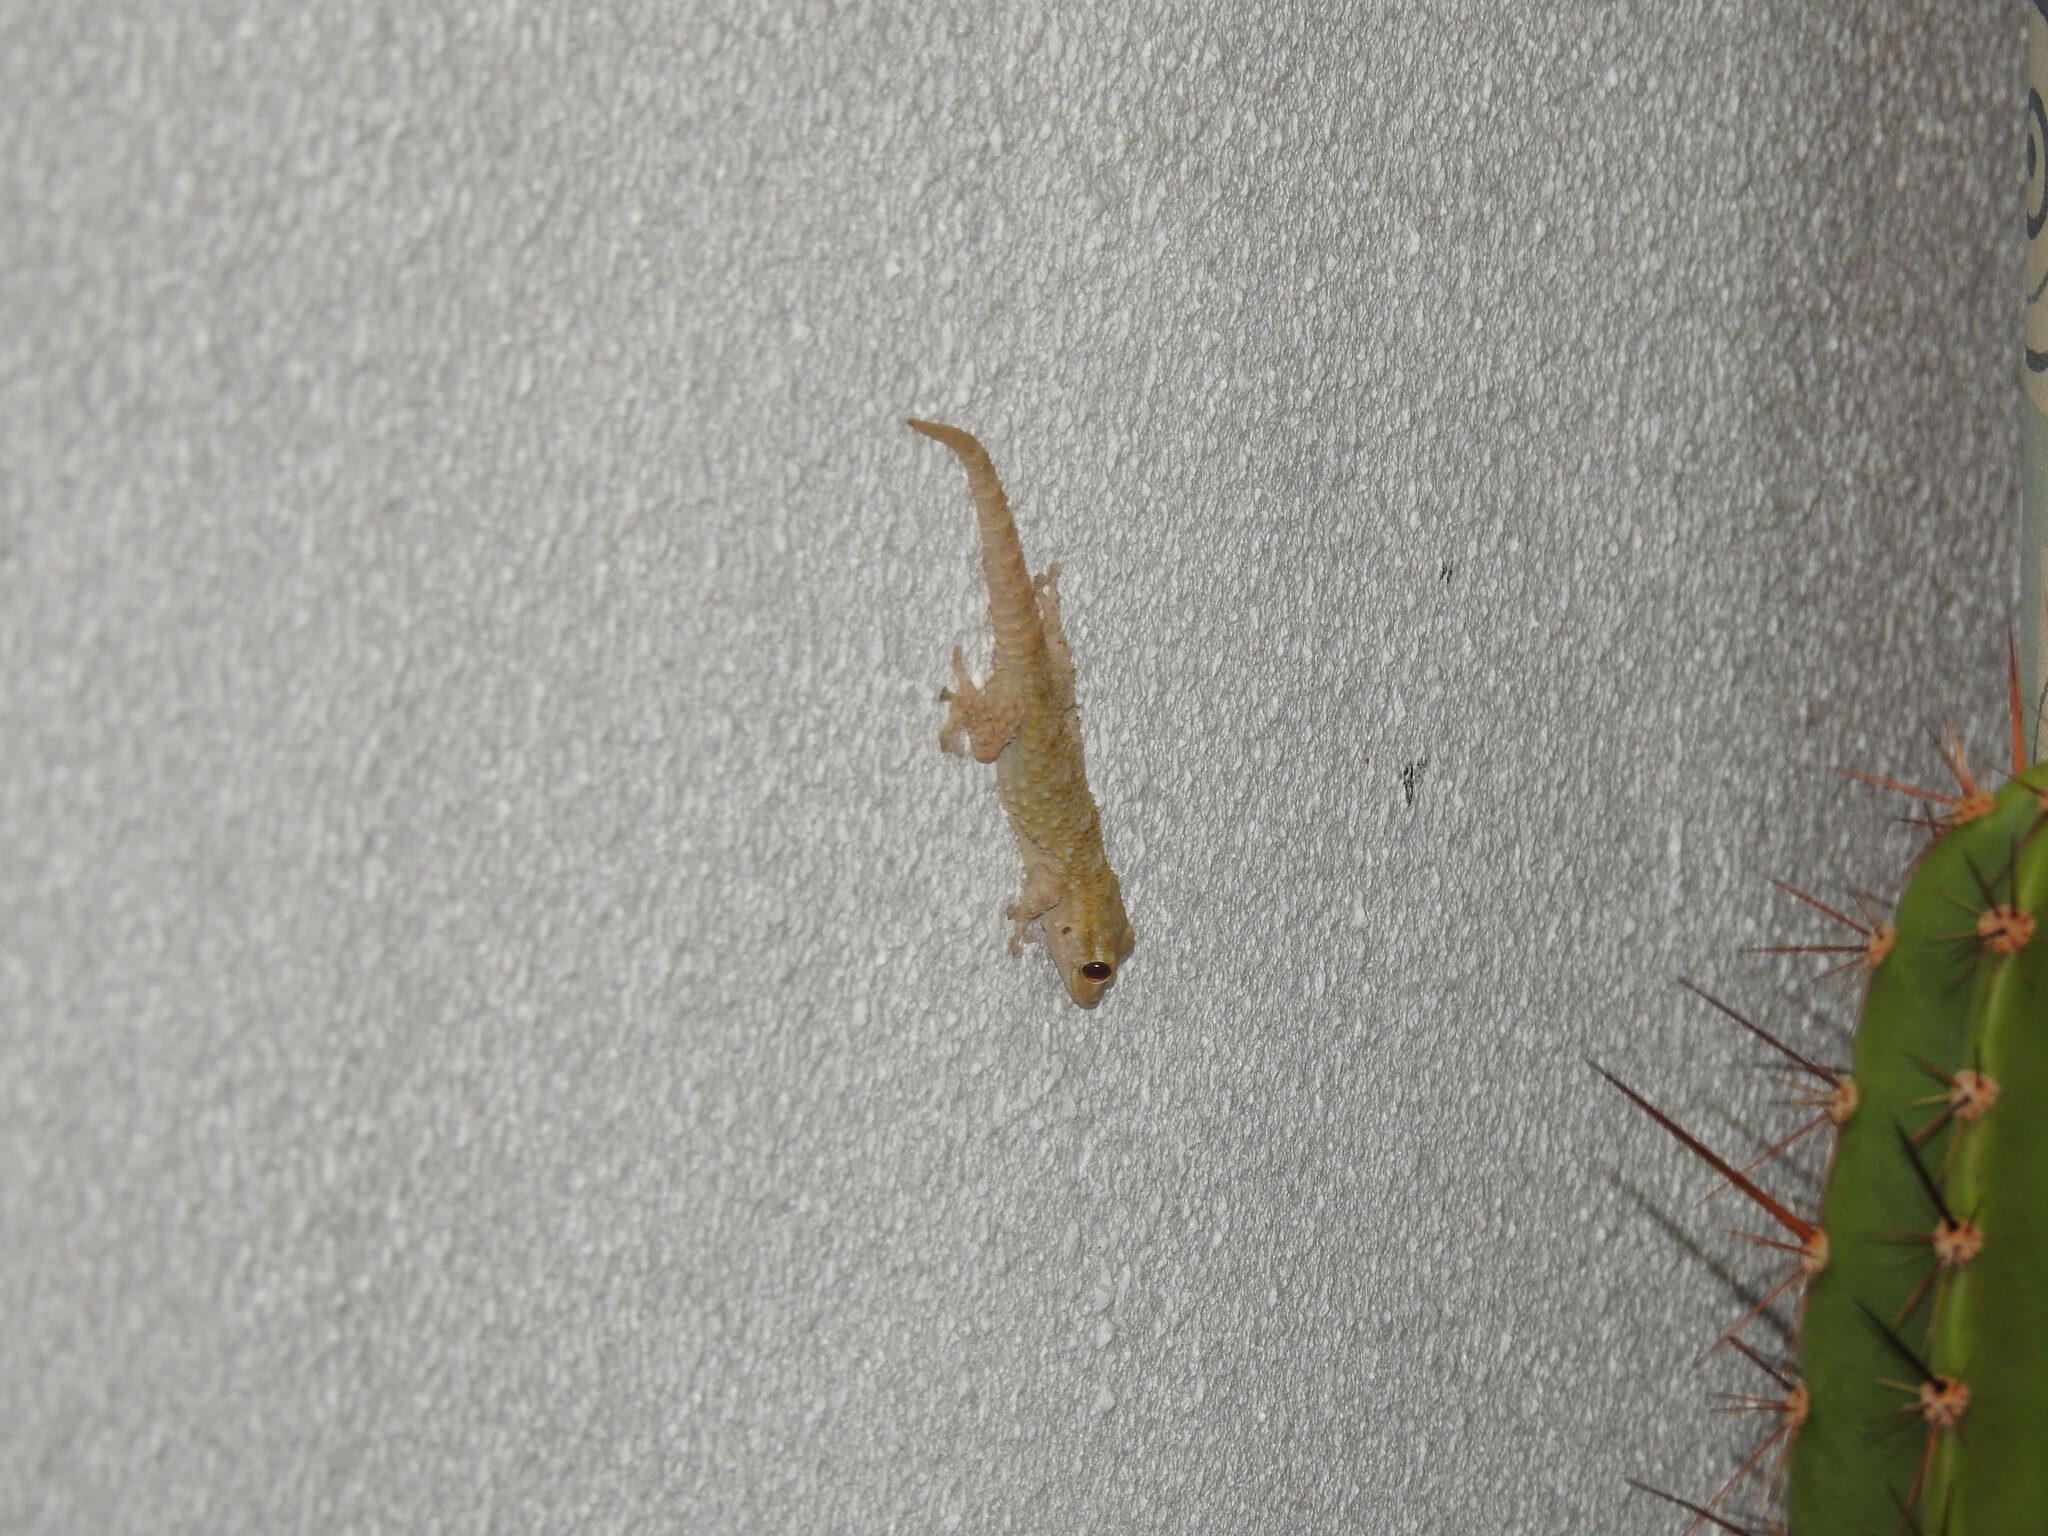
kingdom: Animalia
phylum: Chordata
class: Squamata
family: Phyllodactylidae
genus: Tarentola
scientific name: Tarentola mauritanica
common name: Moorish gecko
